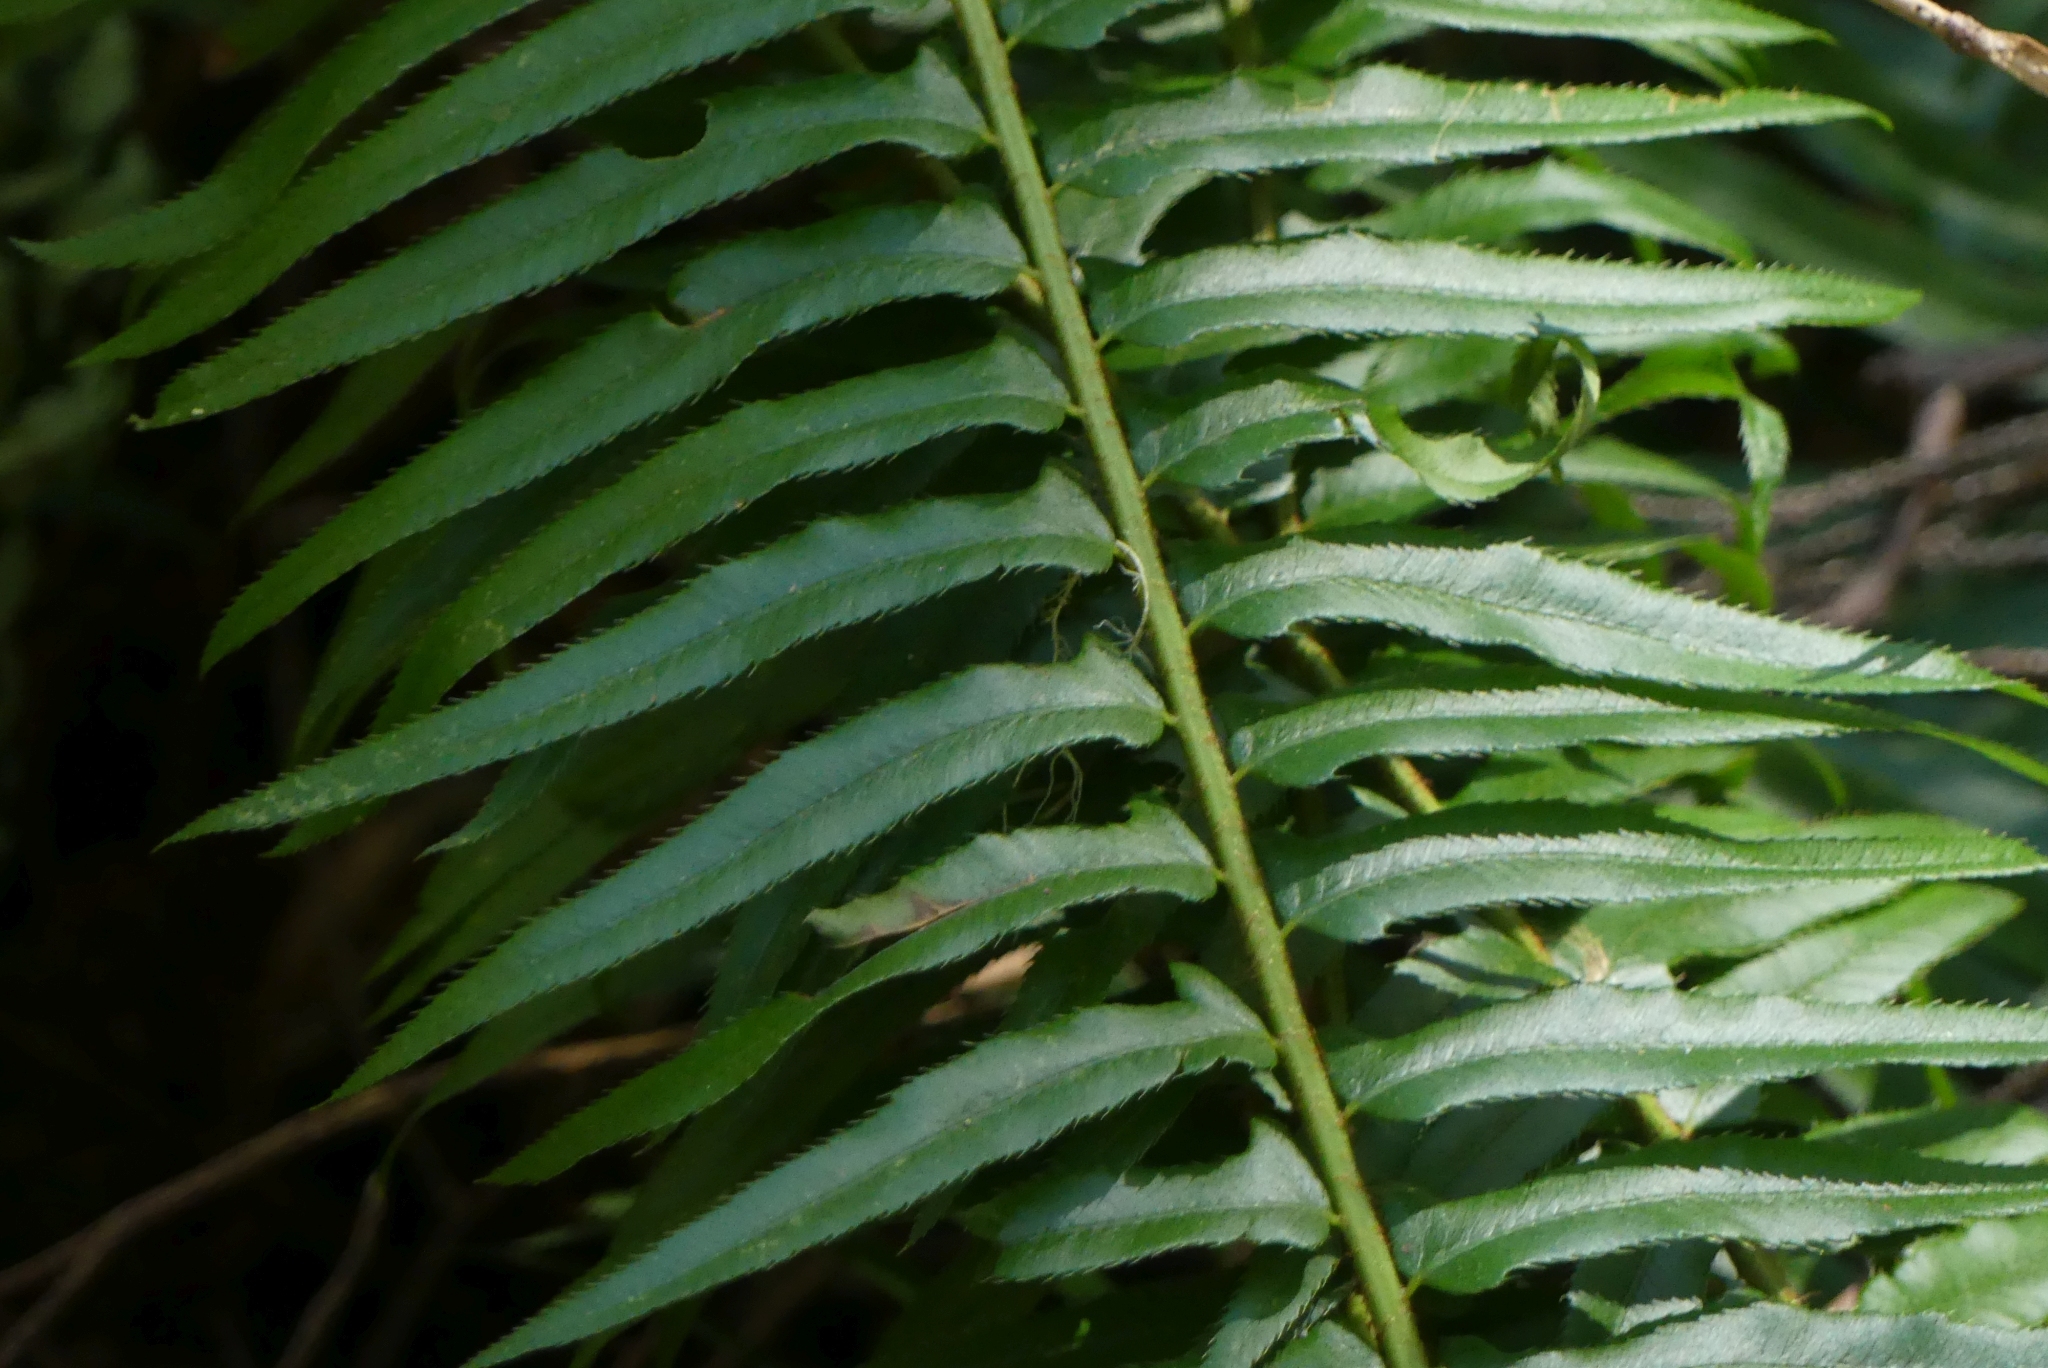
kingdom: Plantae
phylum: Tracheophyta
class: Polypodiopsida
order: Polypodiales
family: Dryopteridaceae
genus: Polystichum
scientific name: Polystichum munitum
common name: Western sword-fern
